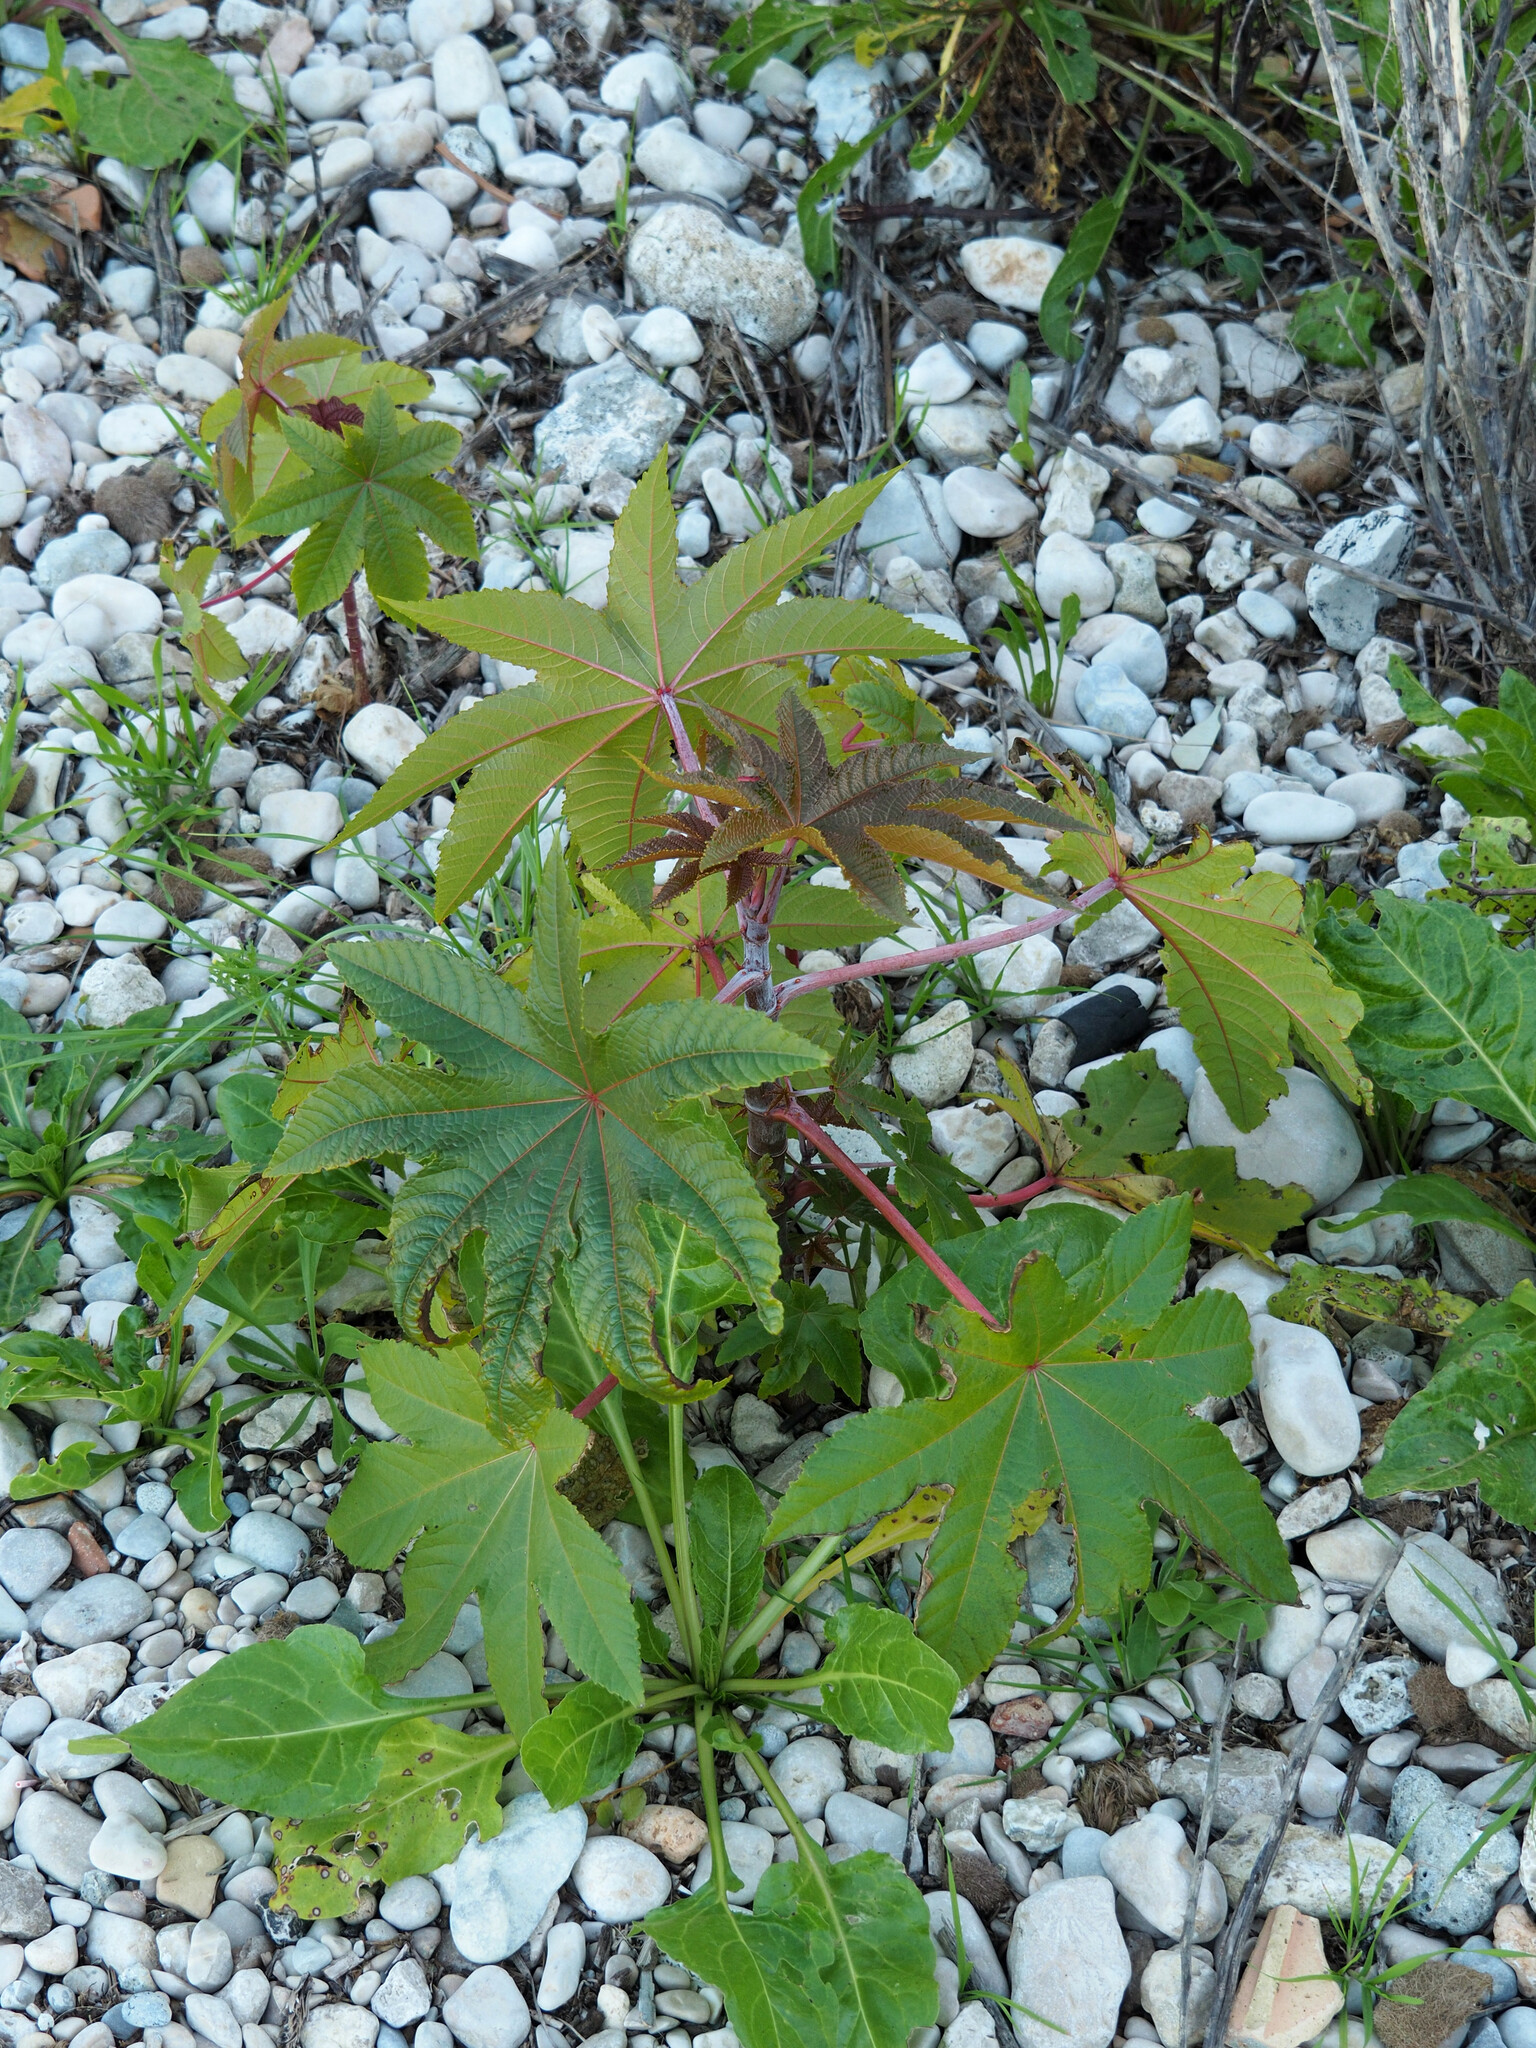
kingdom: Plantae
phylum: Tracheophyta
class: Magnoliopsida
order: Malpighiales
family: Euphorbiaceae
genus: Ricinus
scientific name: Ricinus communis
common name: Castor-oil-plant
